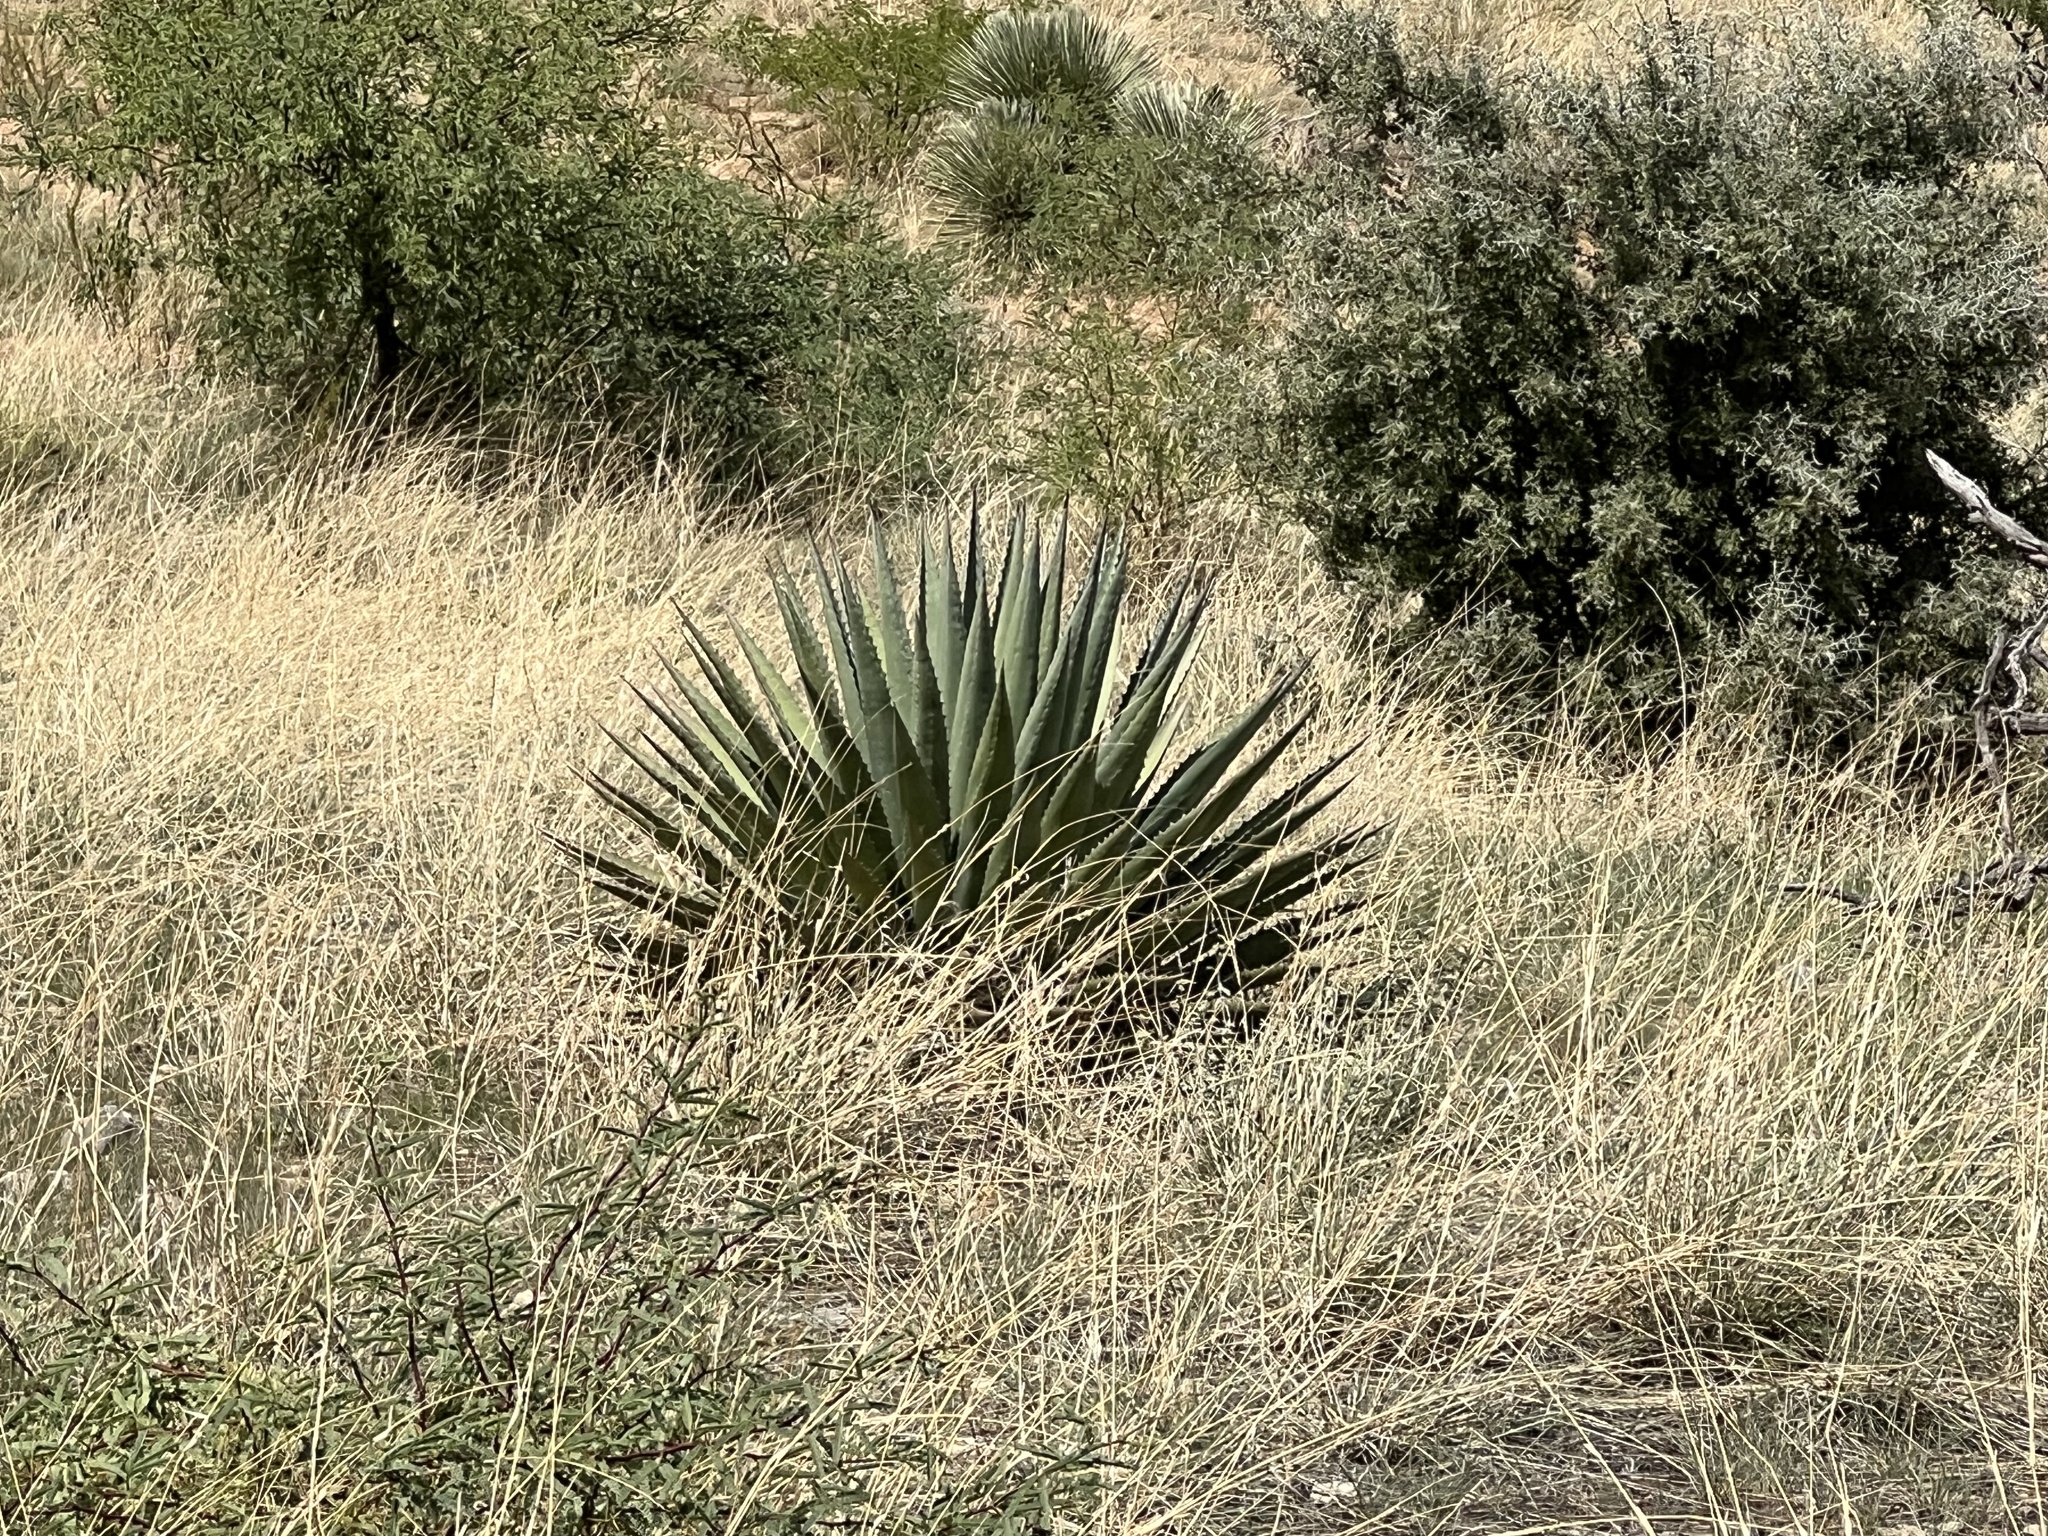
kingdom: Plantae
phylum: Tracheophyta
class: Liliopsida
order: Asparagales
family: Asparagaceae
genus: Agave
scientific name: Agave palmeri
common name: Palmer agave
